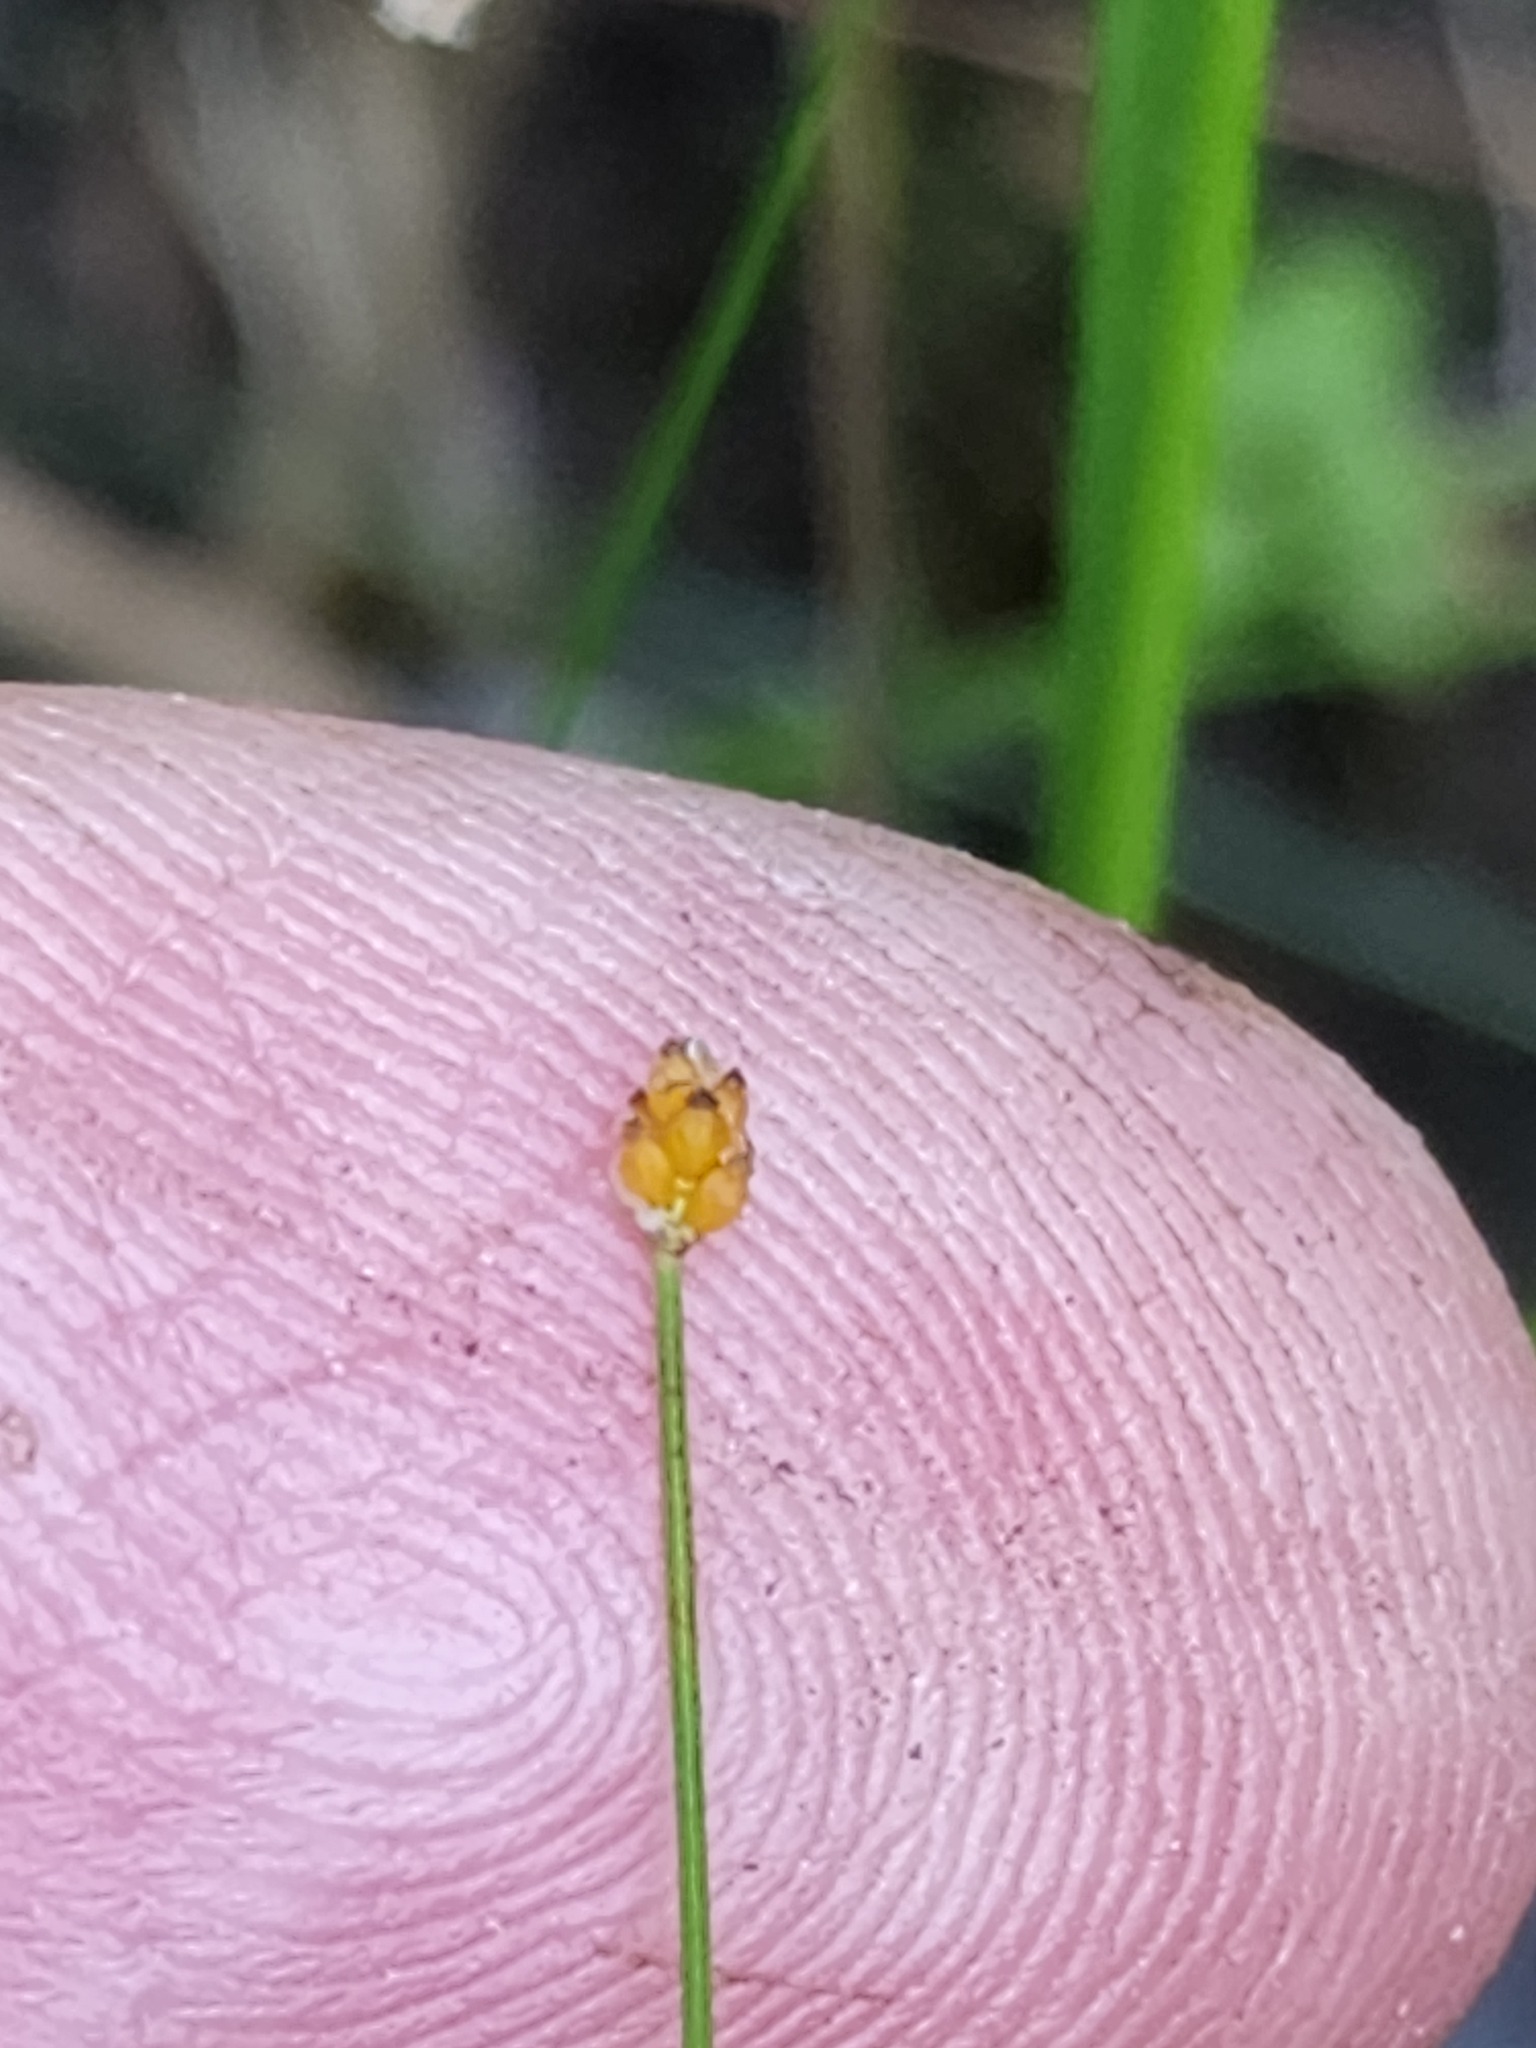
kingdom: Plantae
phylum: Tracheophyta
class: Liliopsida
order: Poales
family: Cyperaceae
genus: Eleocharis
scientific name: Eleocharis nitida
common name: Neat spikerush
